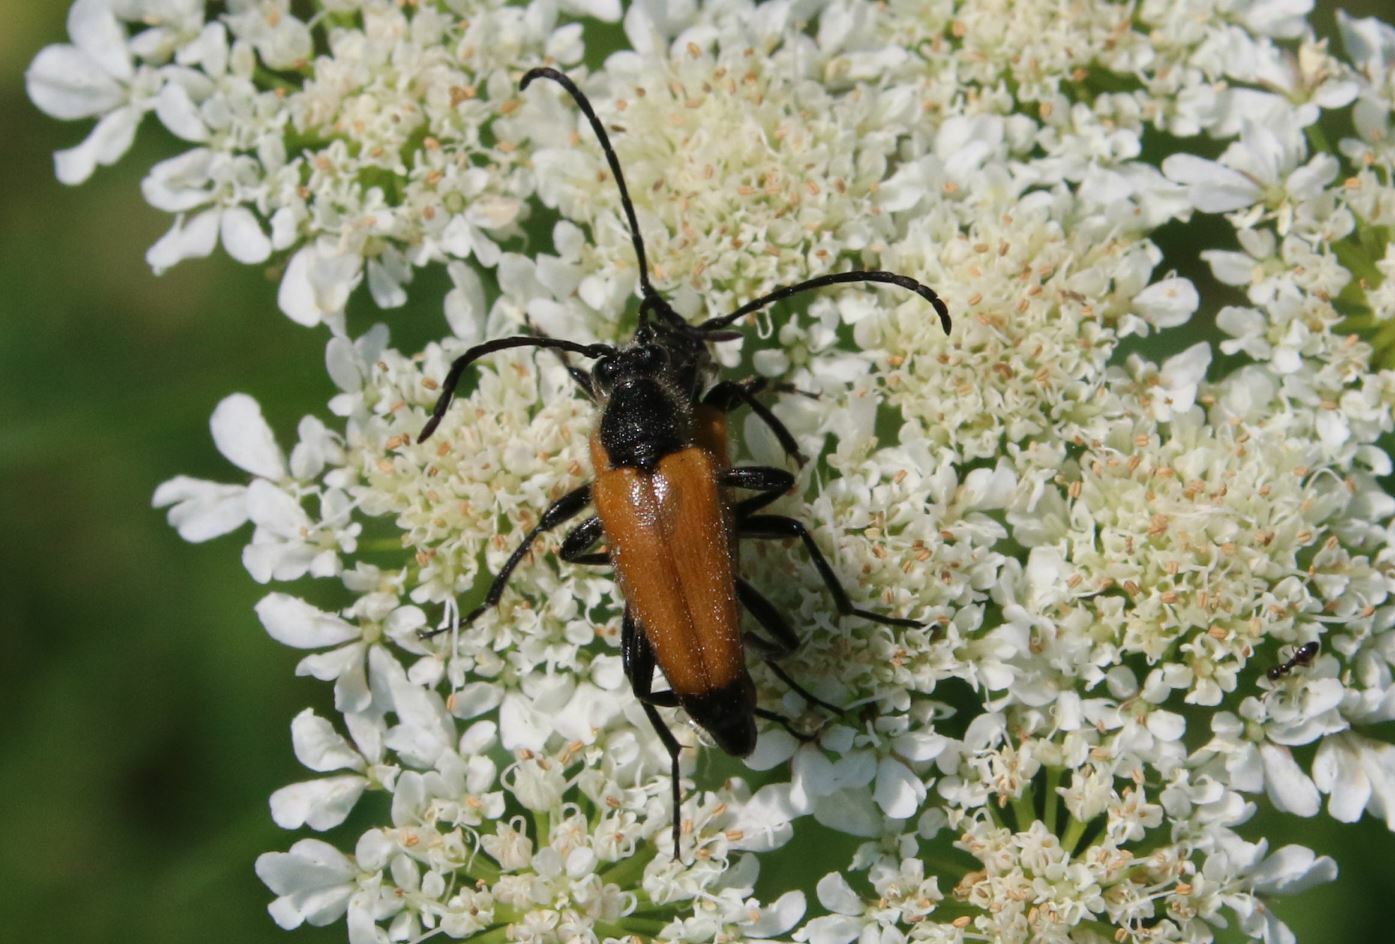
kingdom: Animalia
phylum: Arthropoda
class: Insecta
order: Coleoptera
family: Cerambycidae
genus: Paracorymbia
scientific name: Paracorymbia fulva
